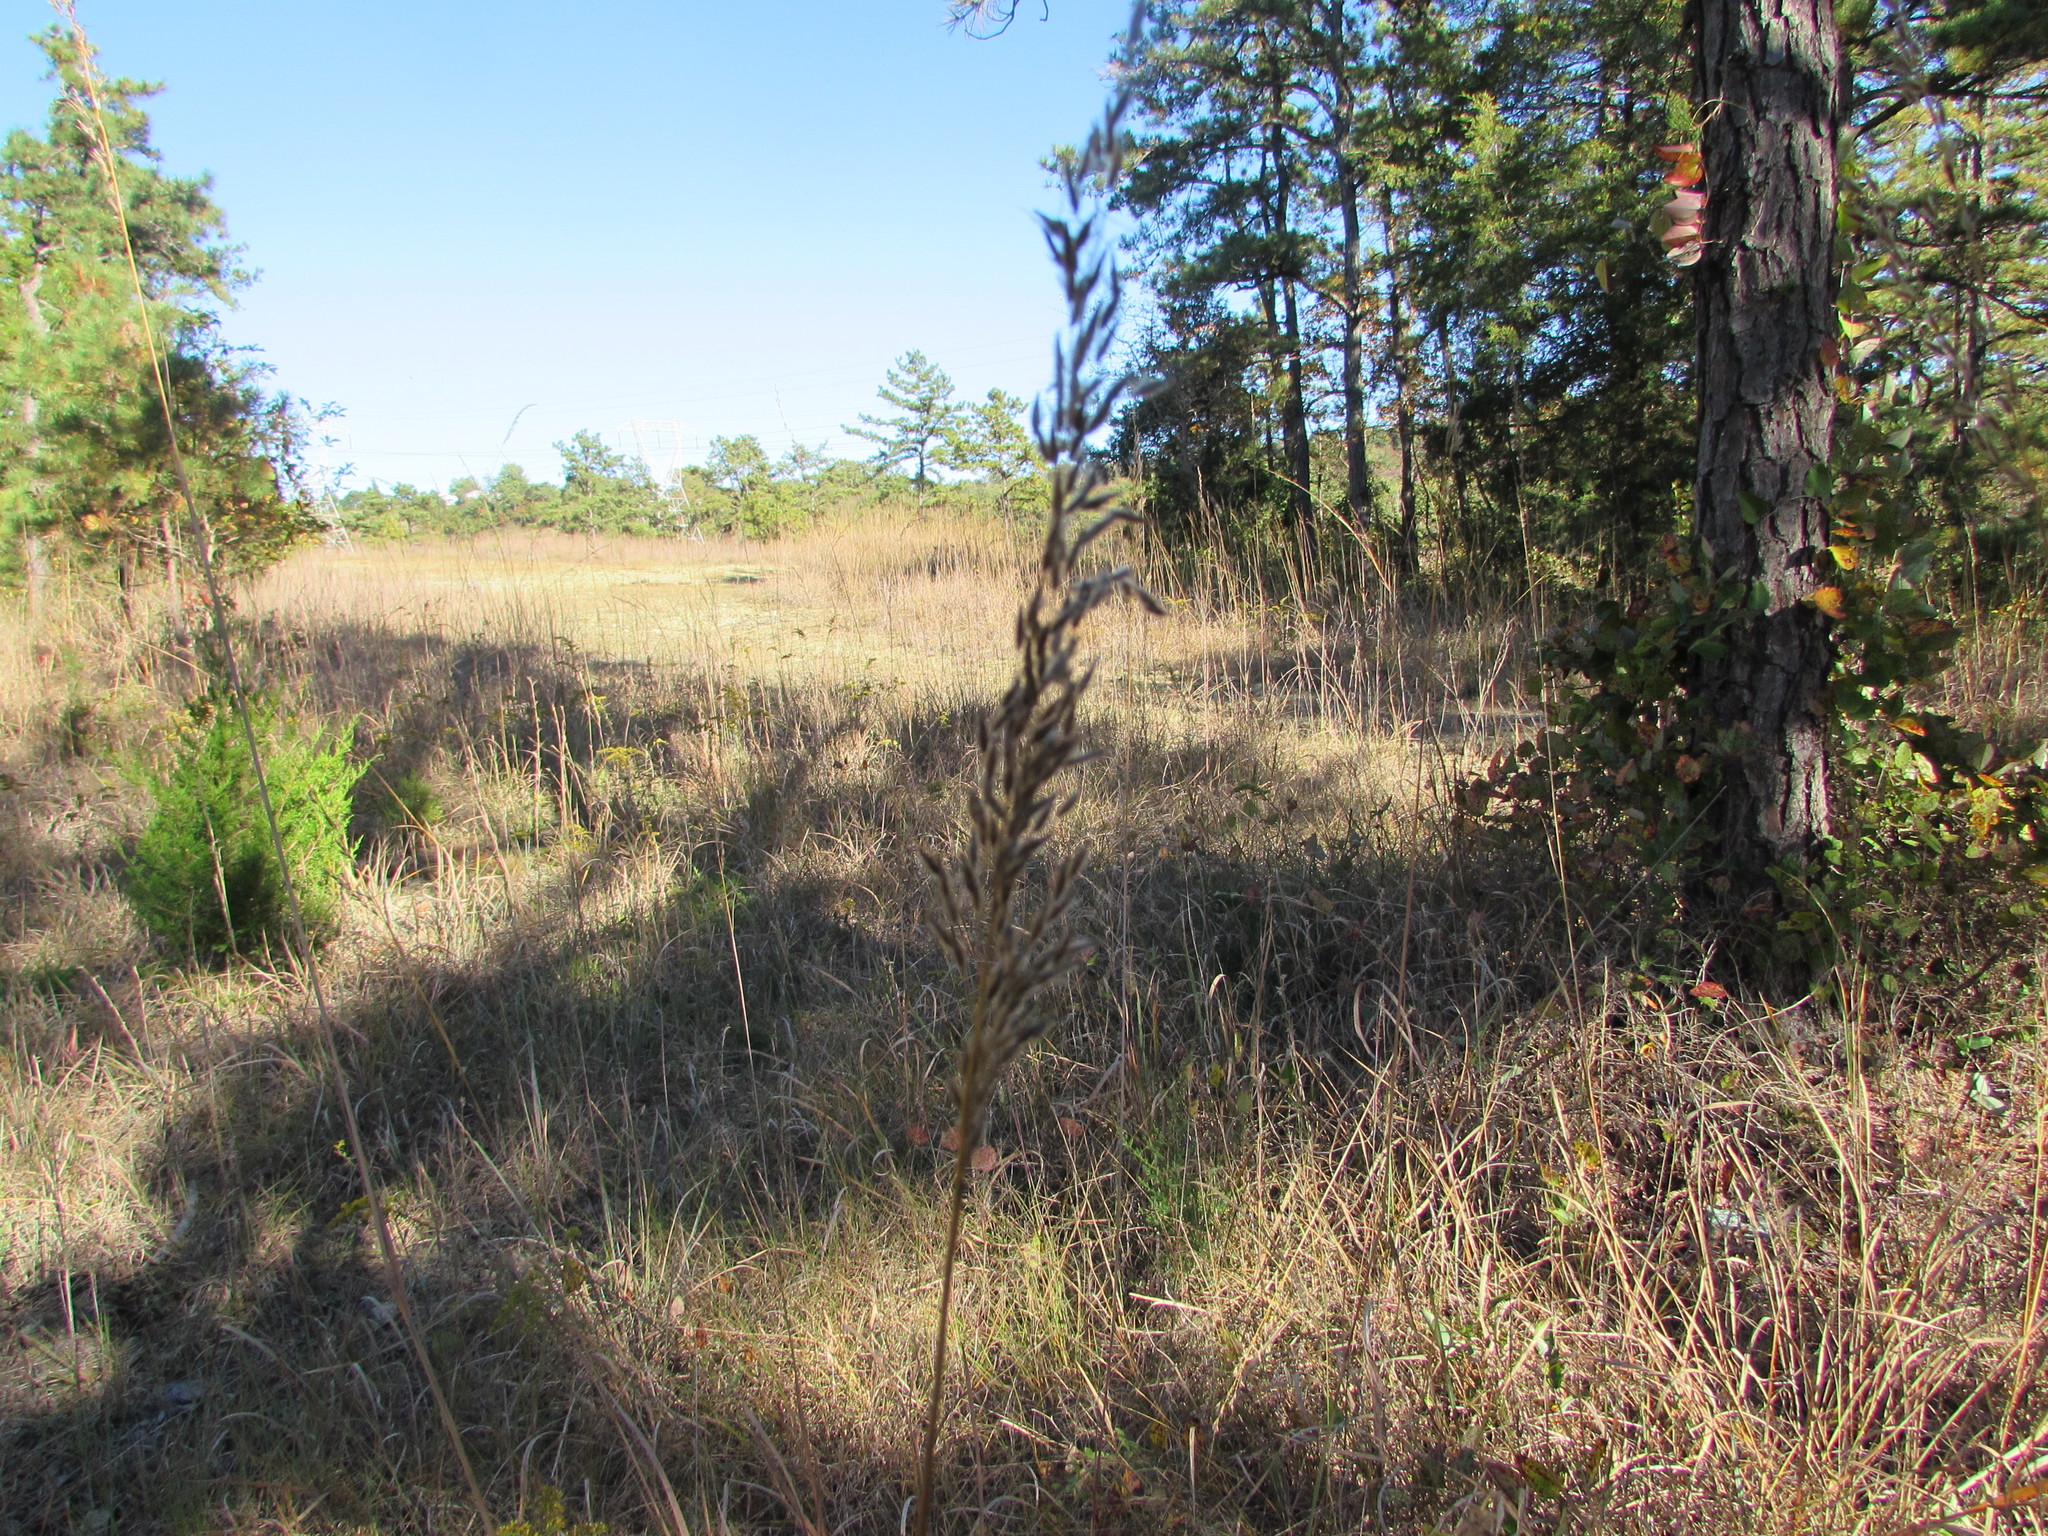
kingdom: Plantae
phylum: Tracheophyta
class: Liliopsida
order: Poales
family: Poaceae
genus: Sorghastrum
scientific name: Sorghastrum nutans
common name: Indian grass
